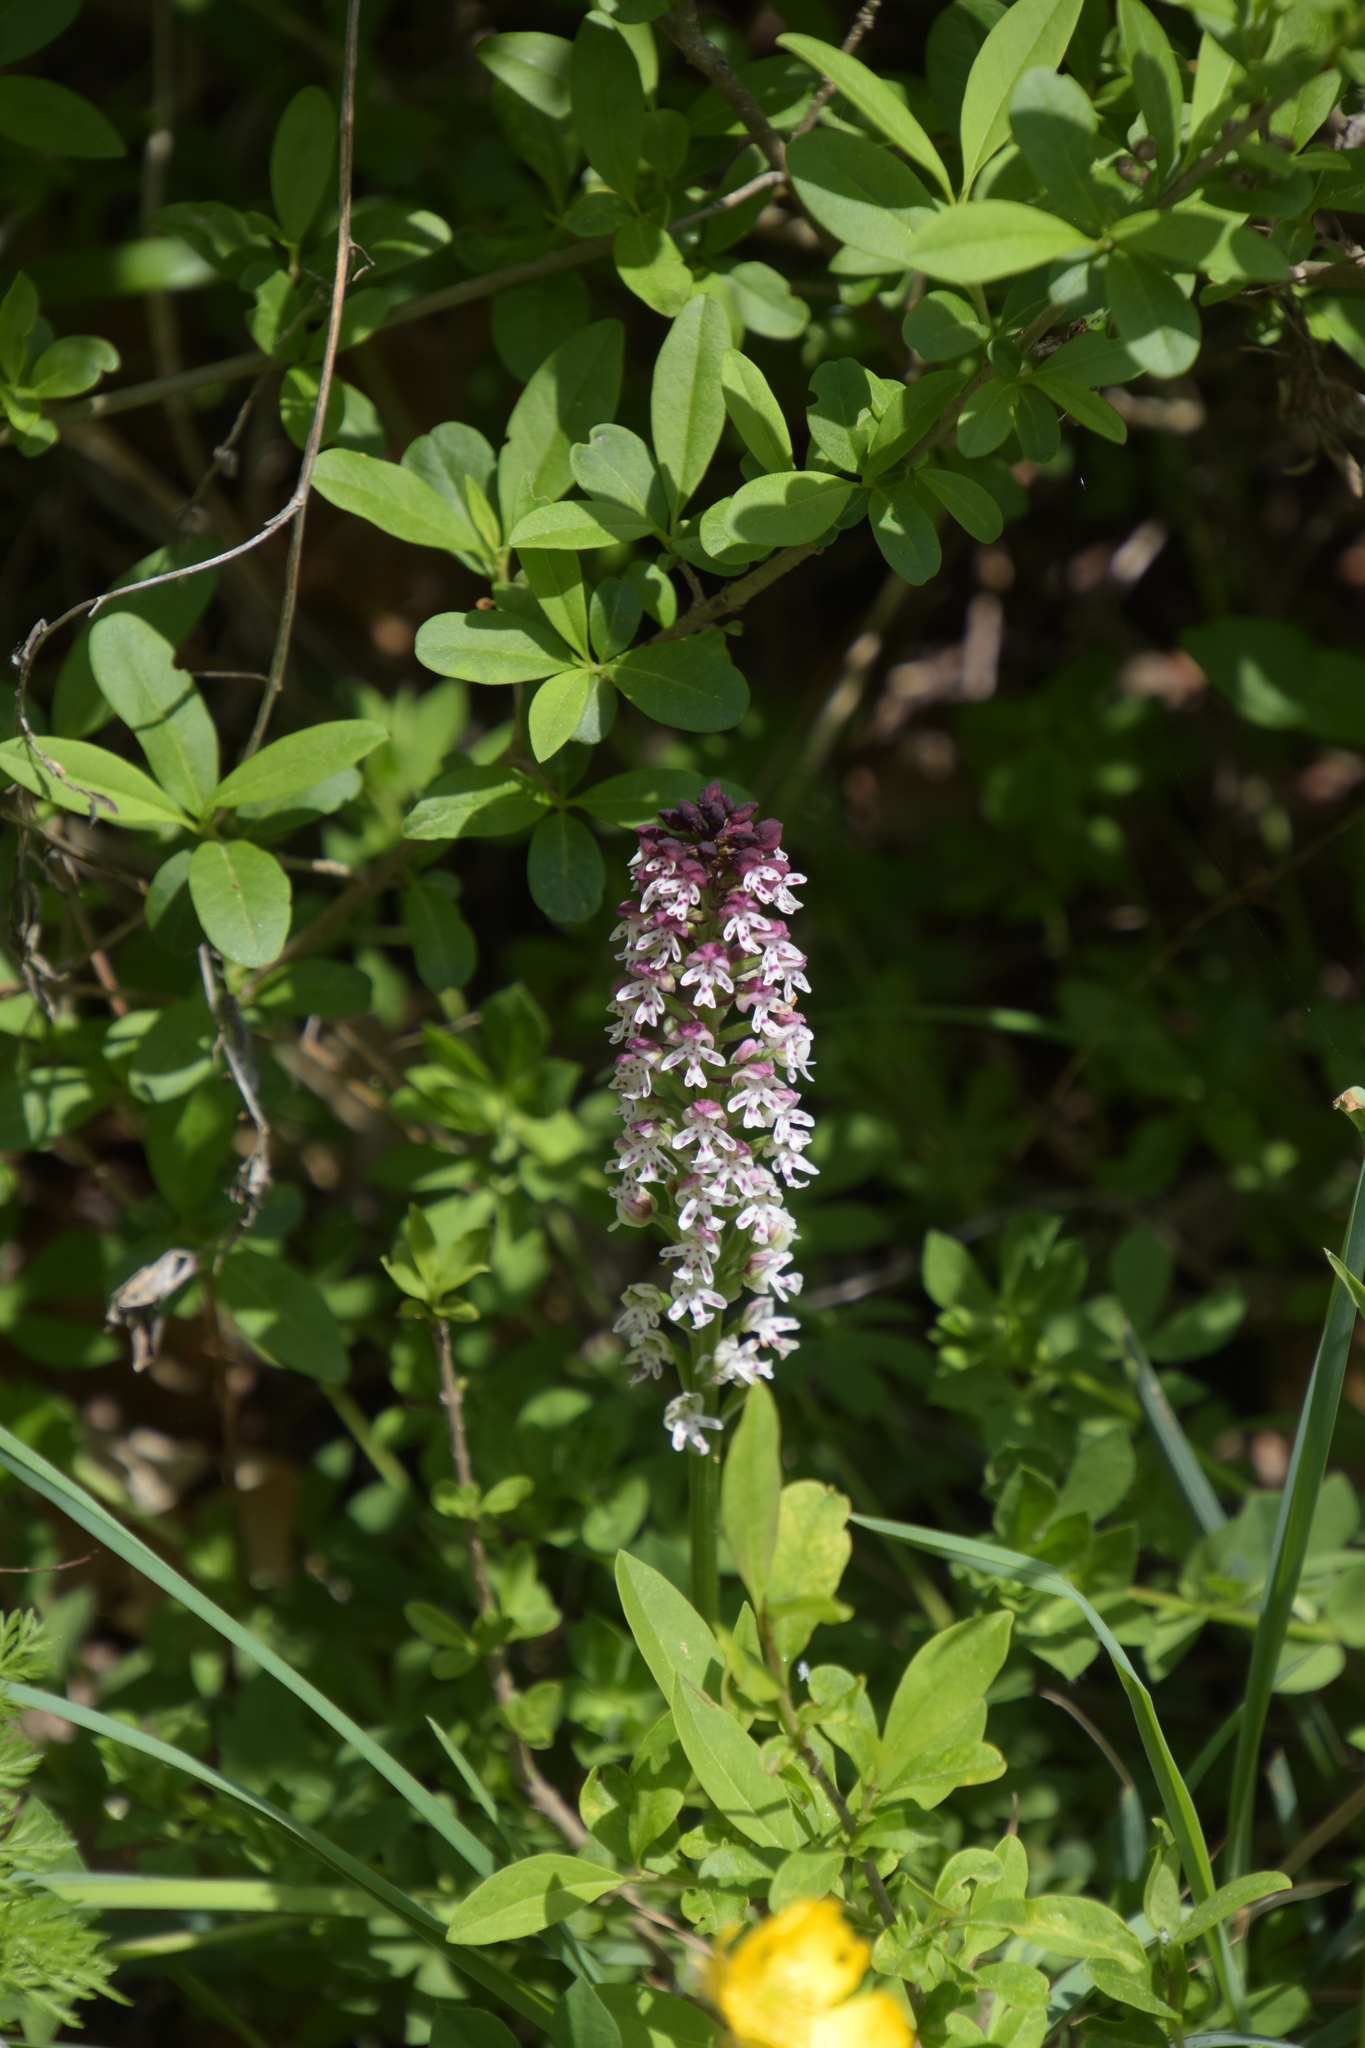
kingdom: Plantae
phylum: Tracheophyta
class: Liliopsida
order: Asparagales
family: Orchidaceae
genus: Neotinea
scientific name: Neotinea ustulata
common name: Burnt orchid
